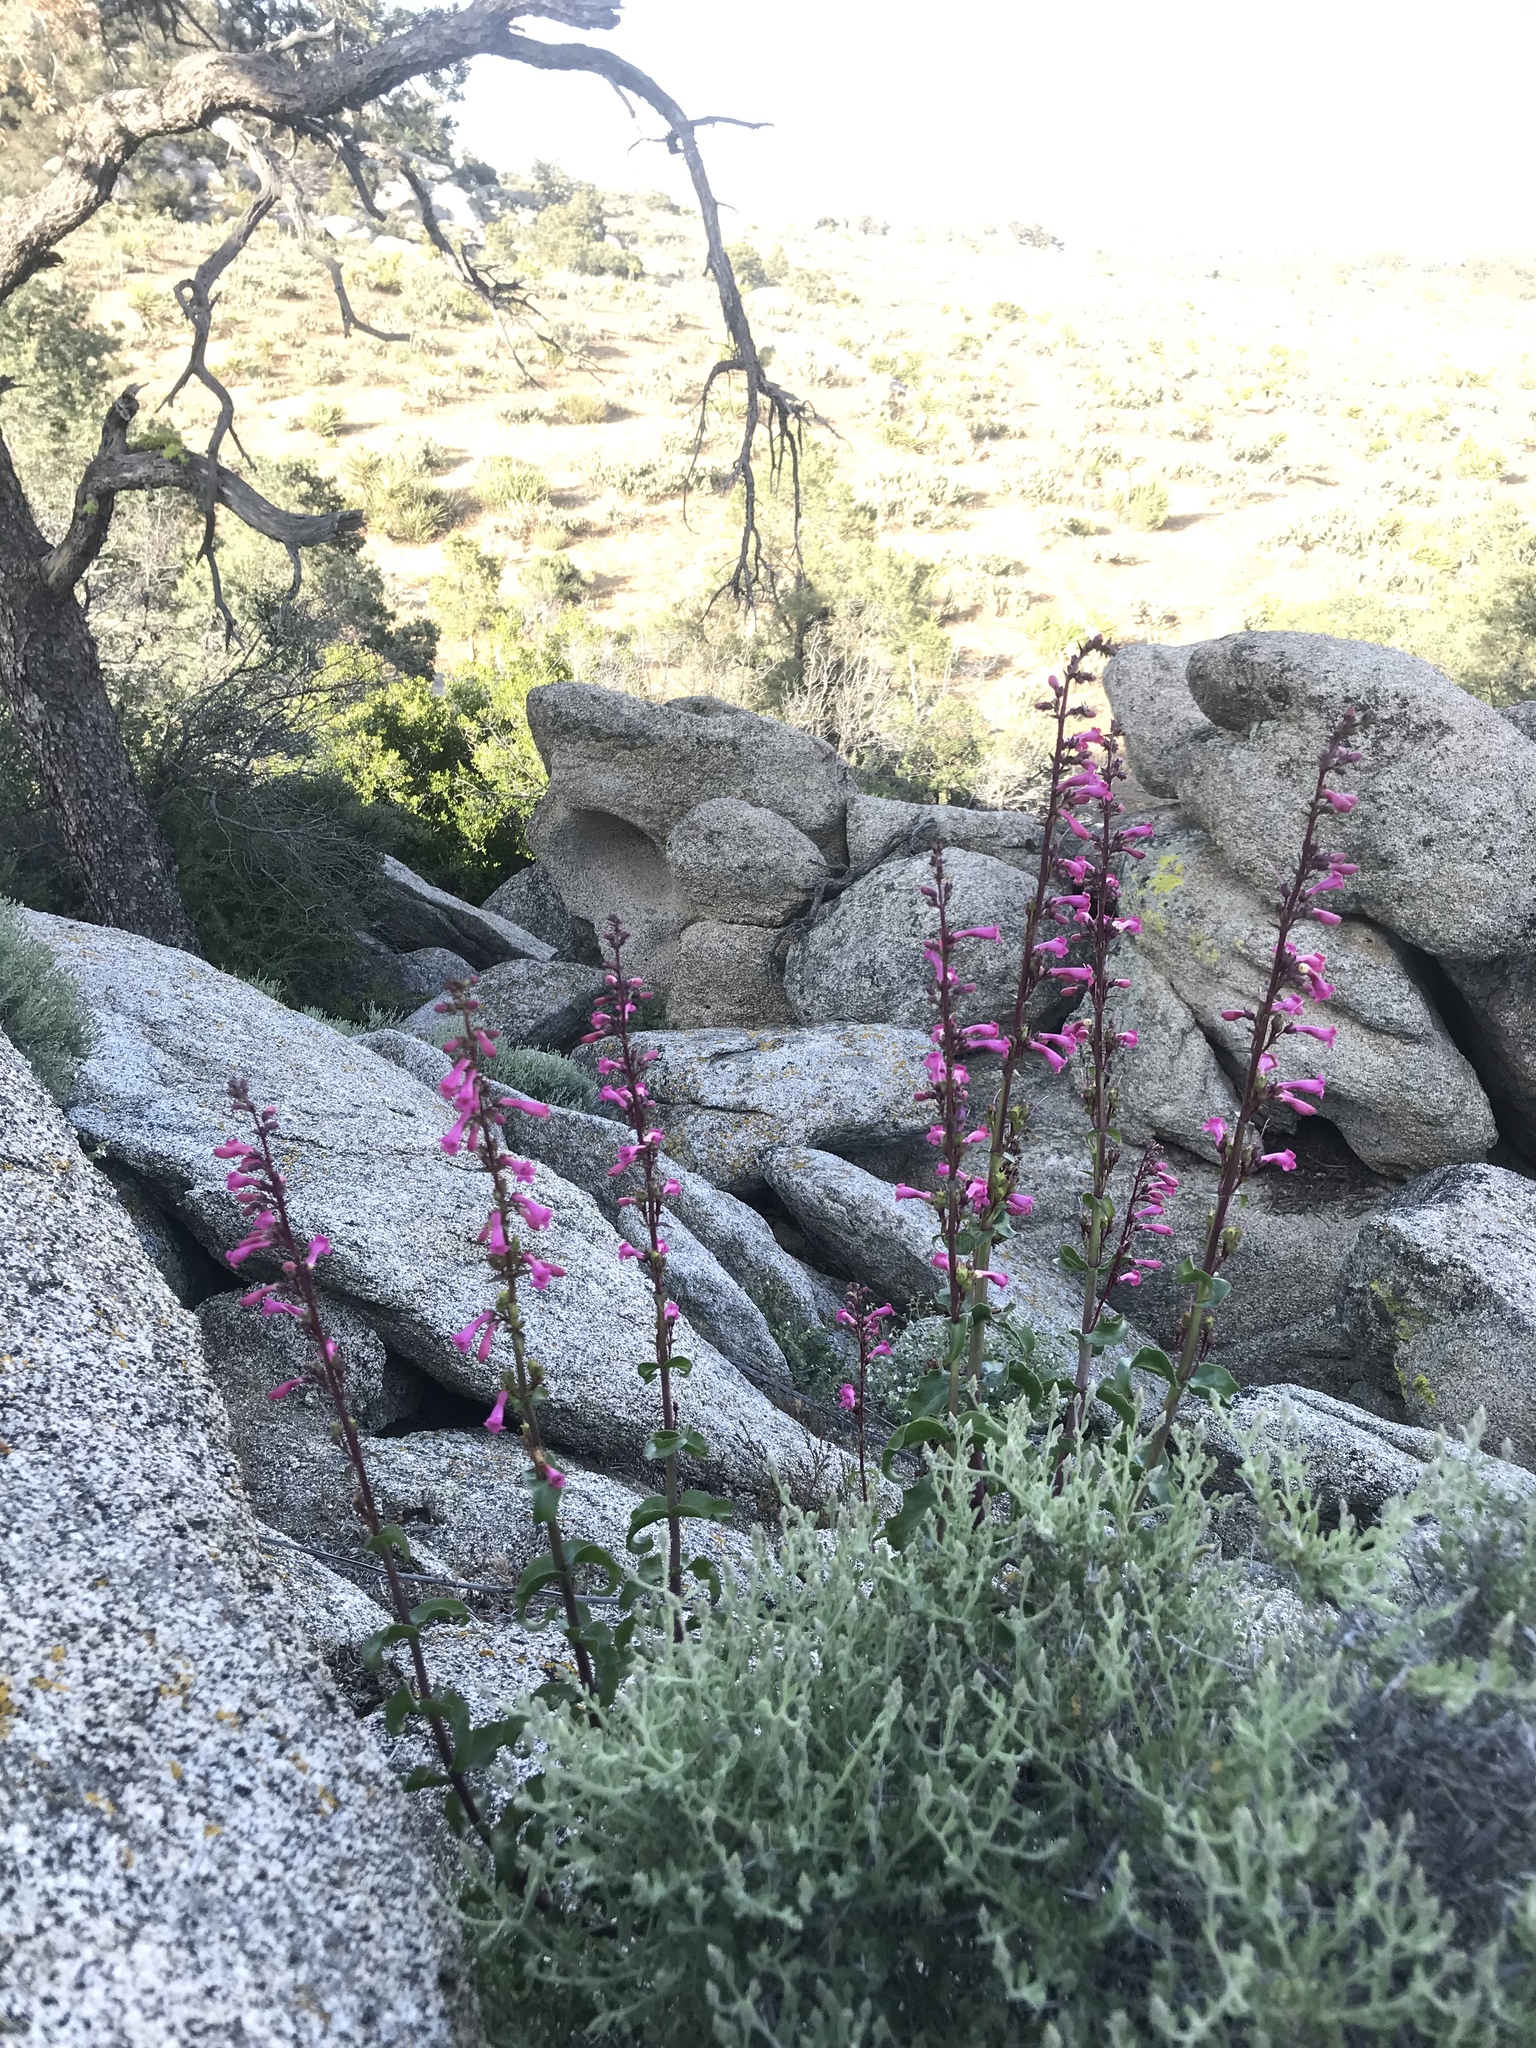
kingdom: Plantae
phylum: Tracheophyta
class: Magnoliopsida
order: Lamiales
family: Plantaginaceae
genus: Penstemon
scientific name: Penstemon clevelandii
